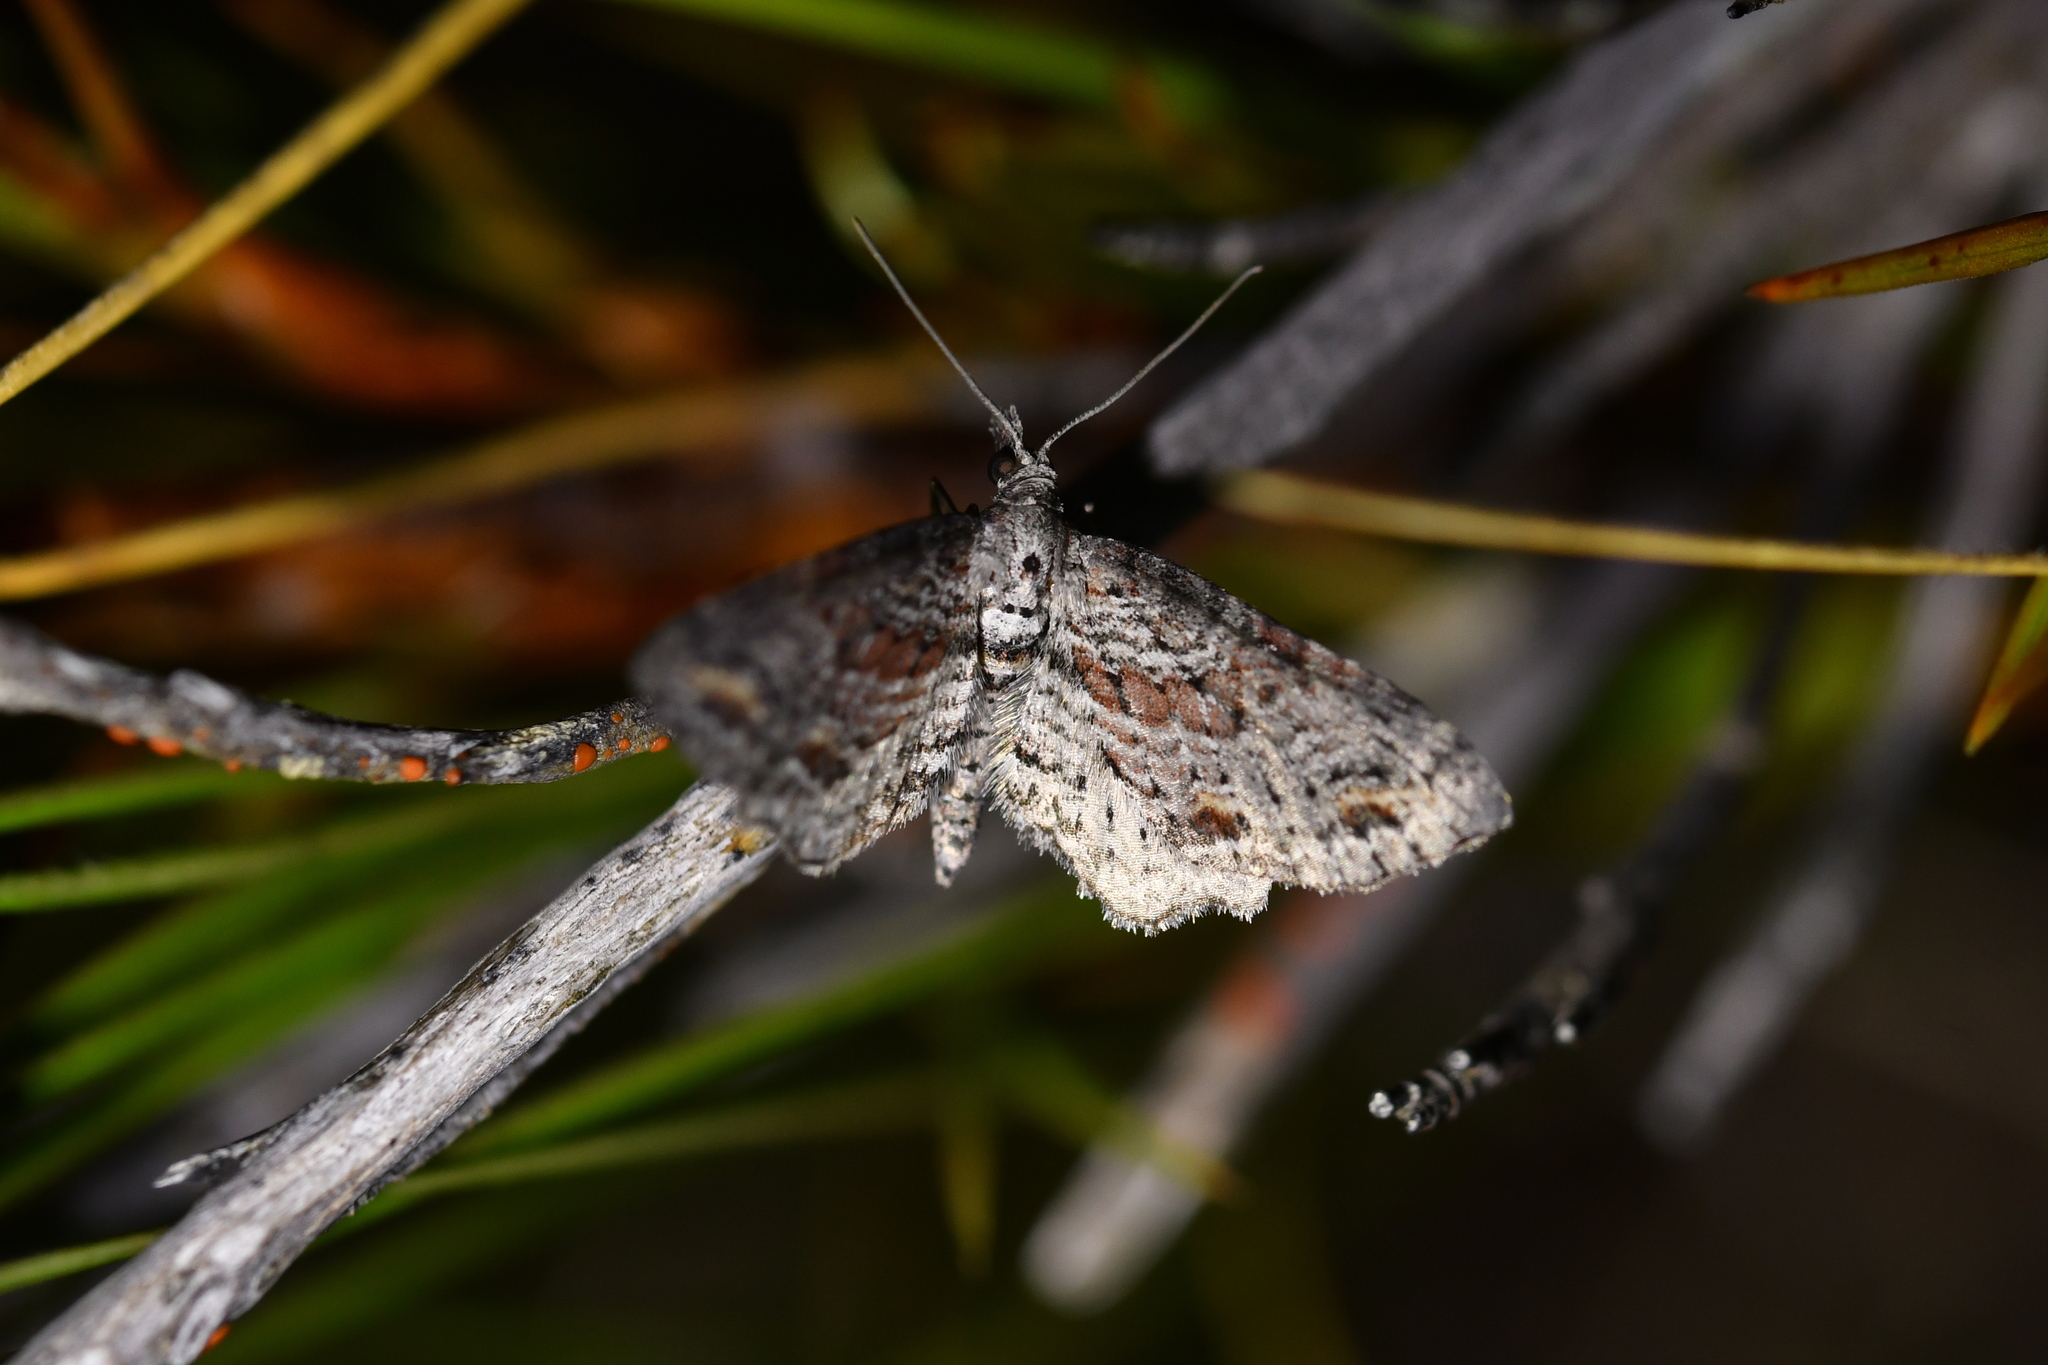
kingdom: Animalia
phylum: Arthropoda
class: Insecta
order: Lepidoptera
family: Geometridae
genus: Pasiphila
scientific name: Pasiphila humilis
